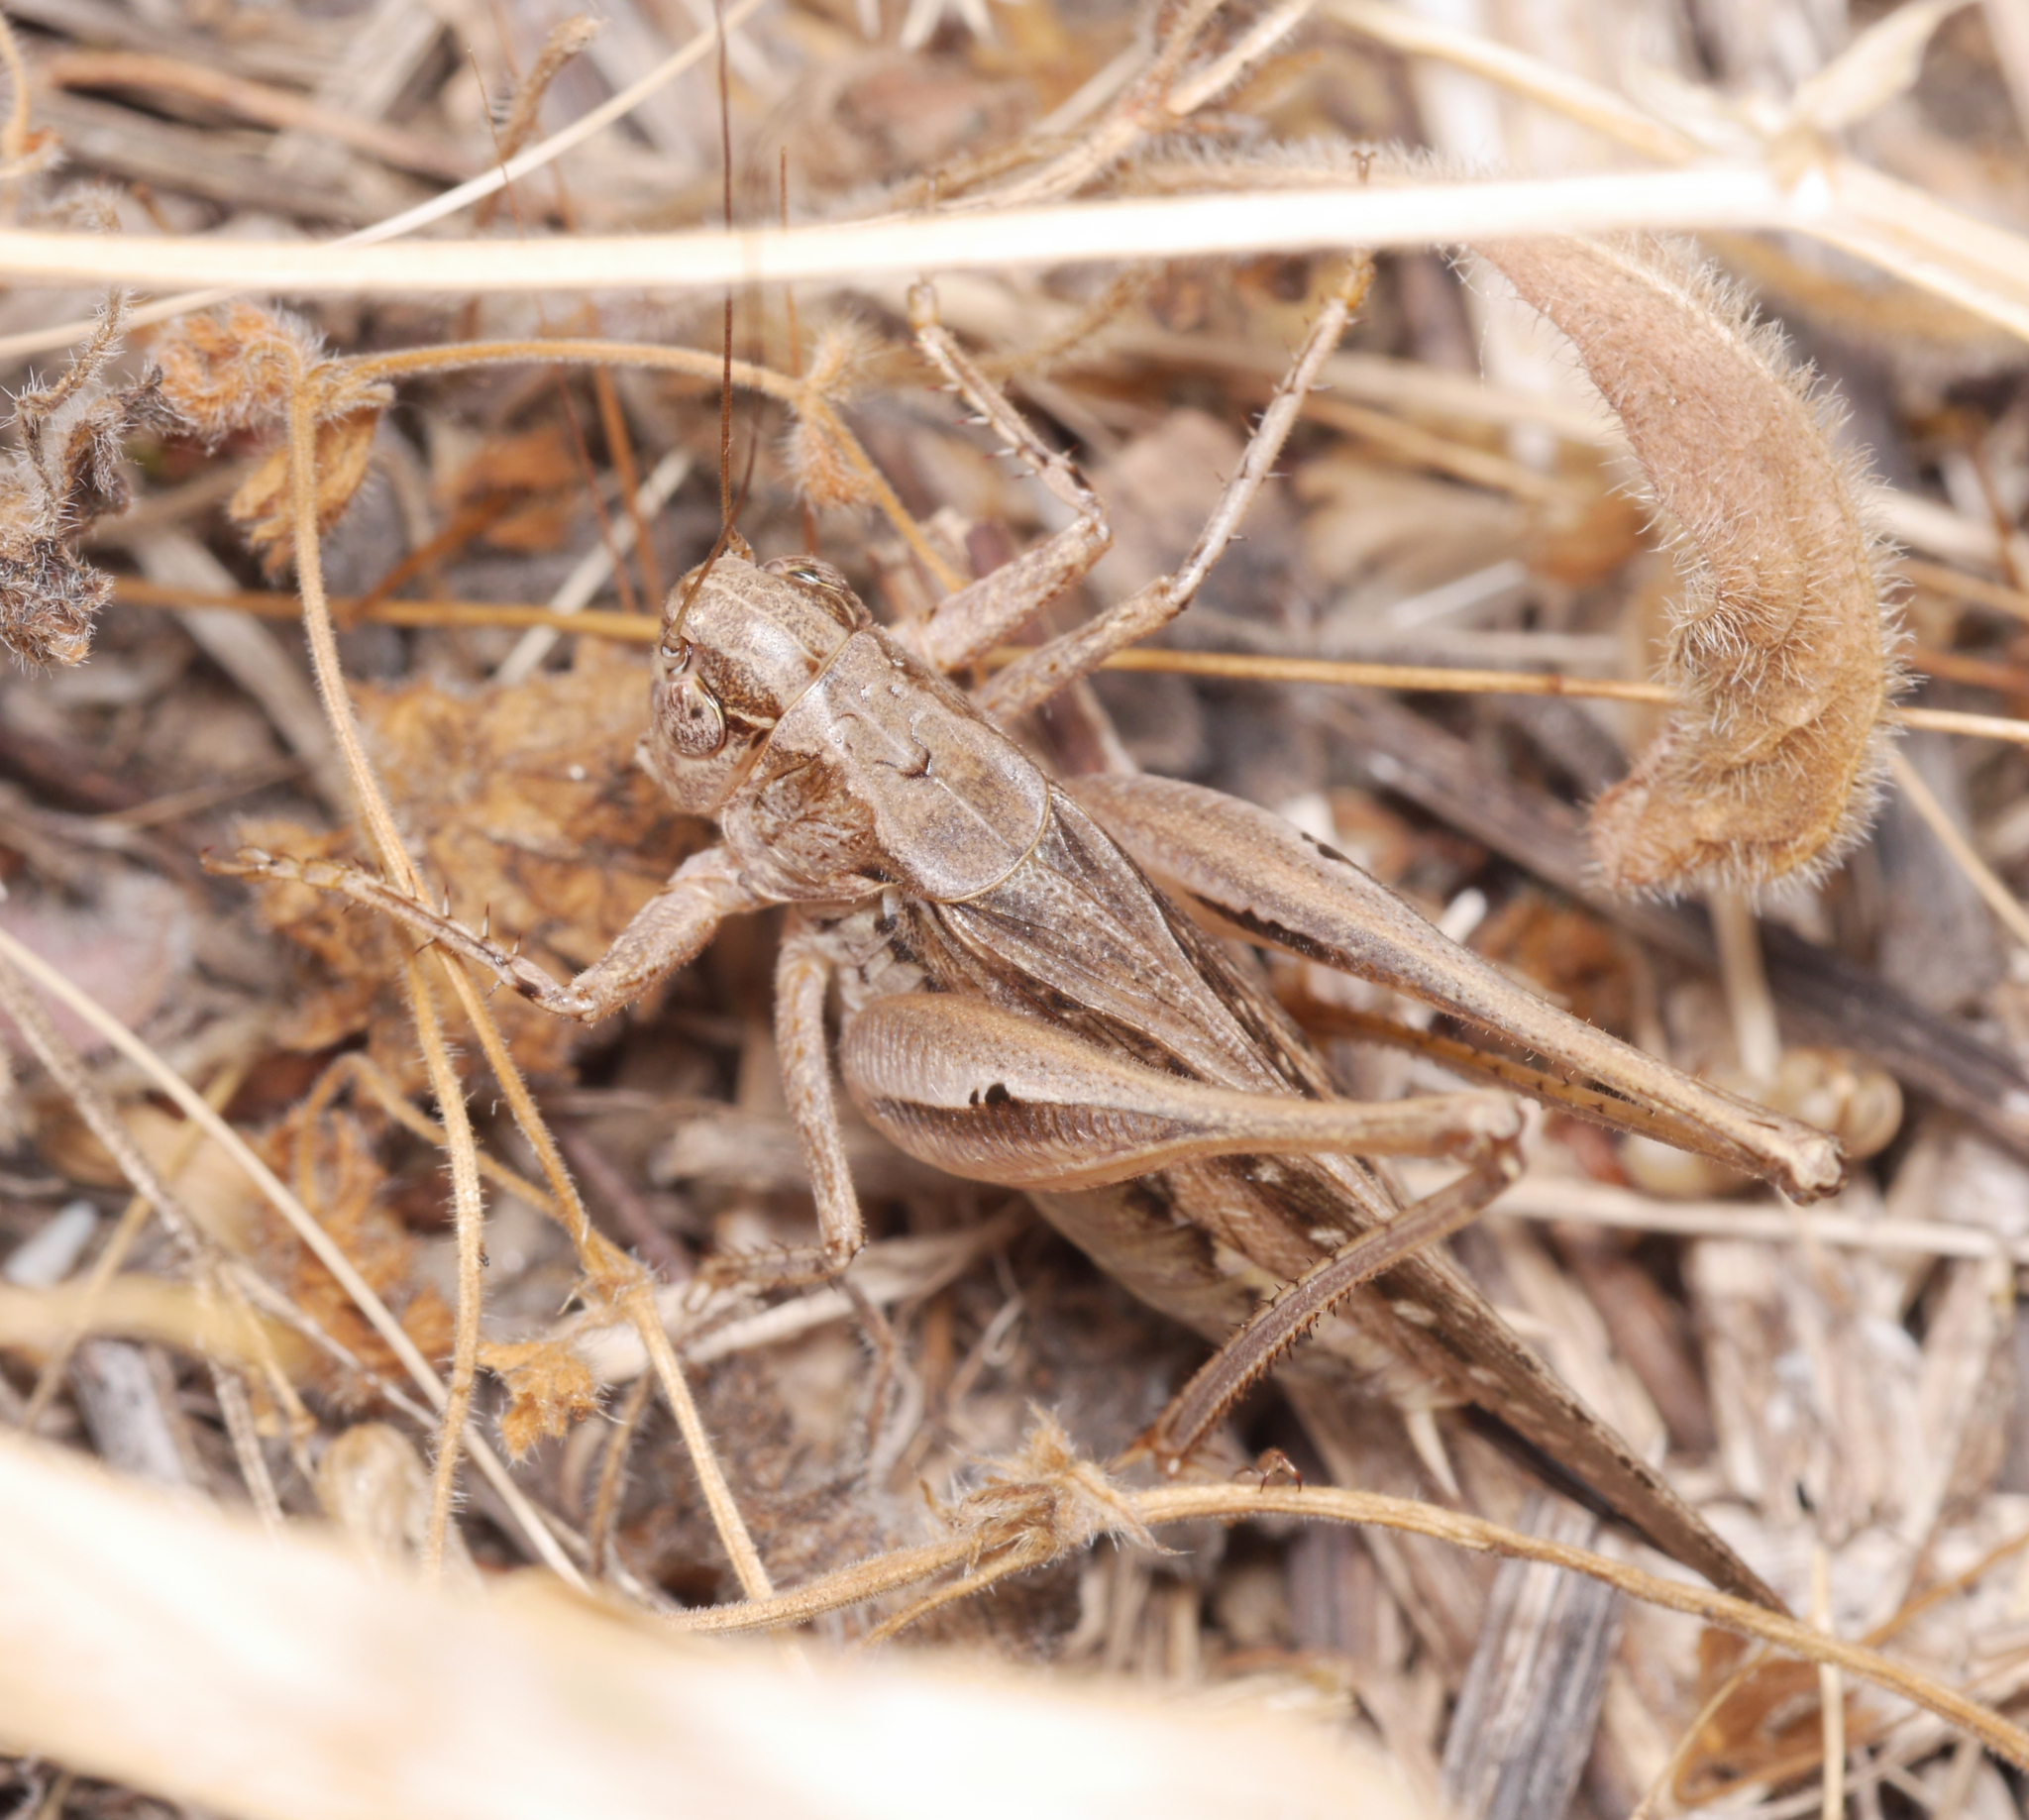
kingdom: Animalia
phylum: Arthropoda
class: Insecta
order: Orthoptera
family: Tettigoniidae
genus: Platycleis
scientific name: Platycleis albopunctata
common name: Grey bush-cricket
